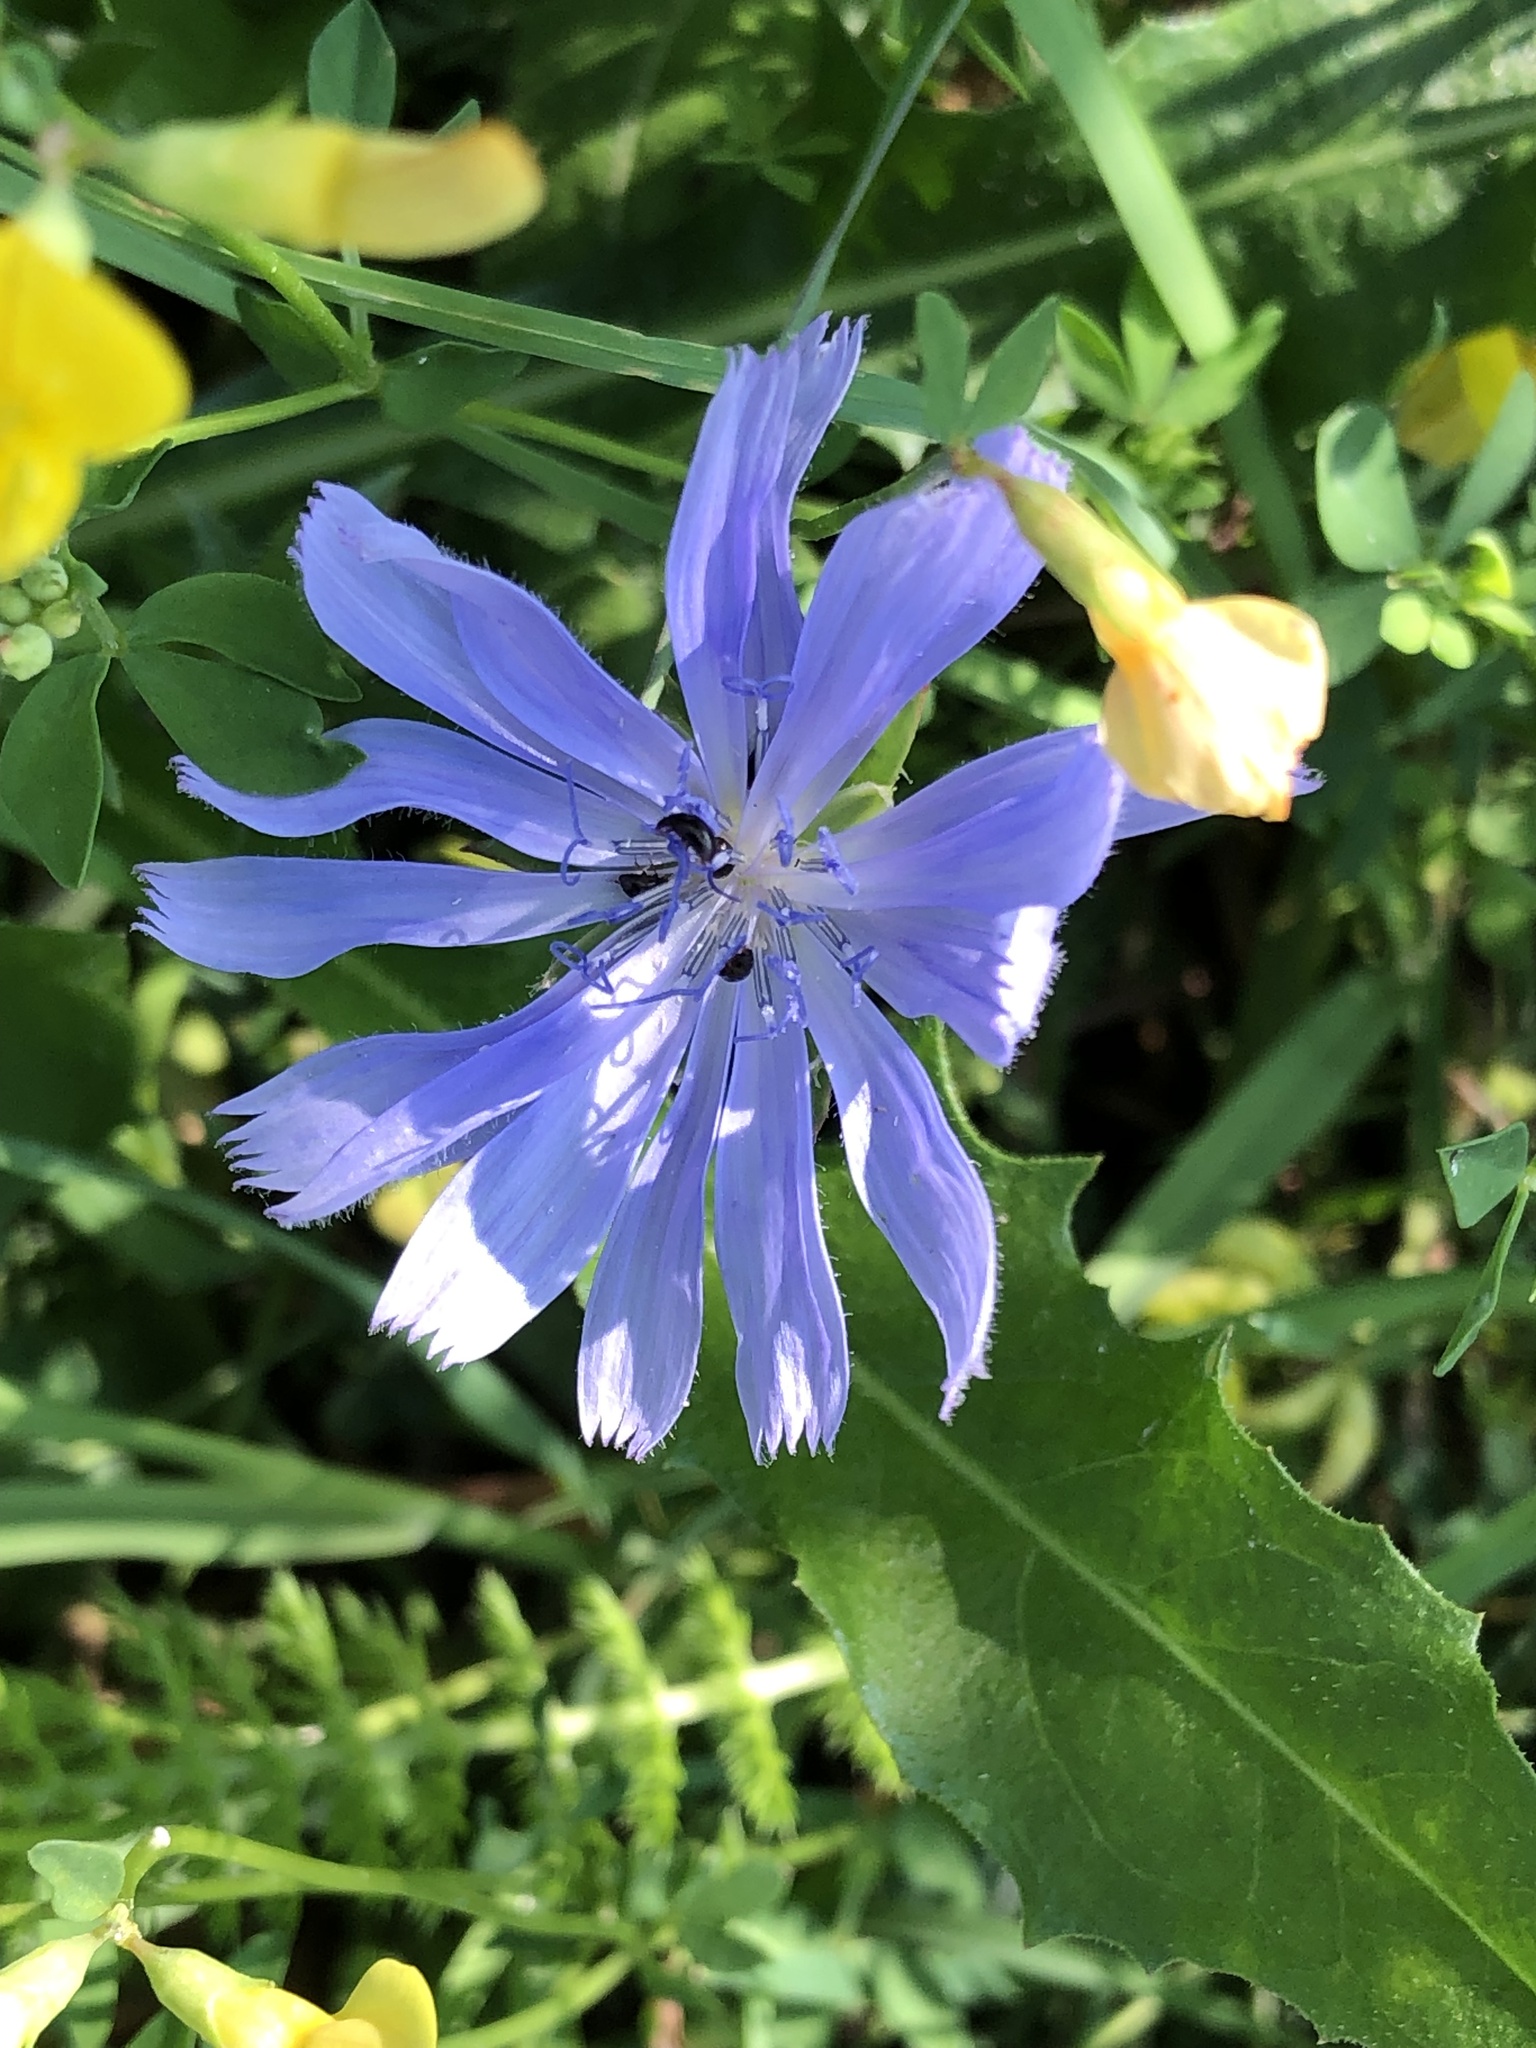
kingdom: Plantae
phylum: Tracheophyta
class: Magnoliopsida
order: Asterales
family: Asteraceae
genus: Cichorium
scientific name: Cichorium intybus
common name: Chicory
